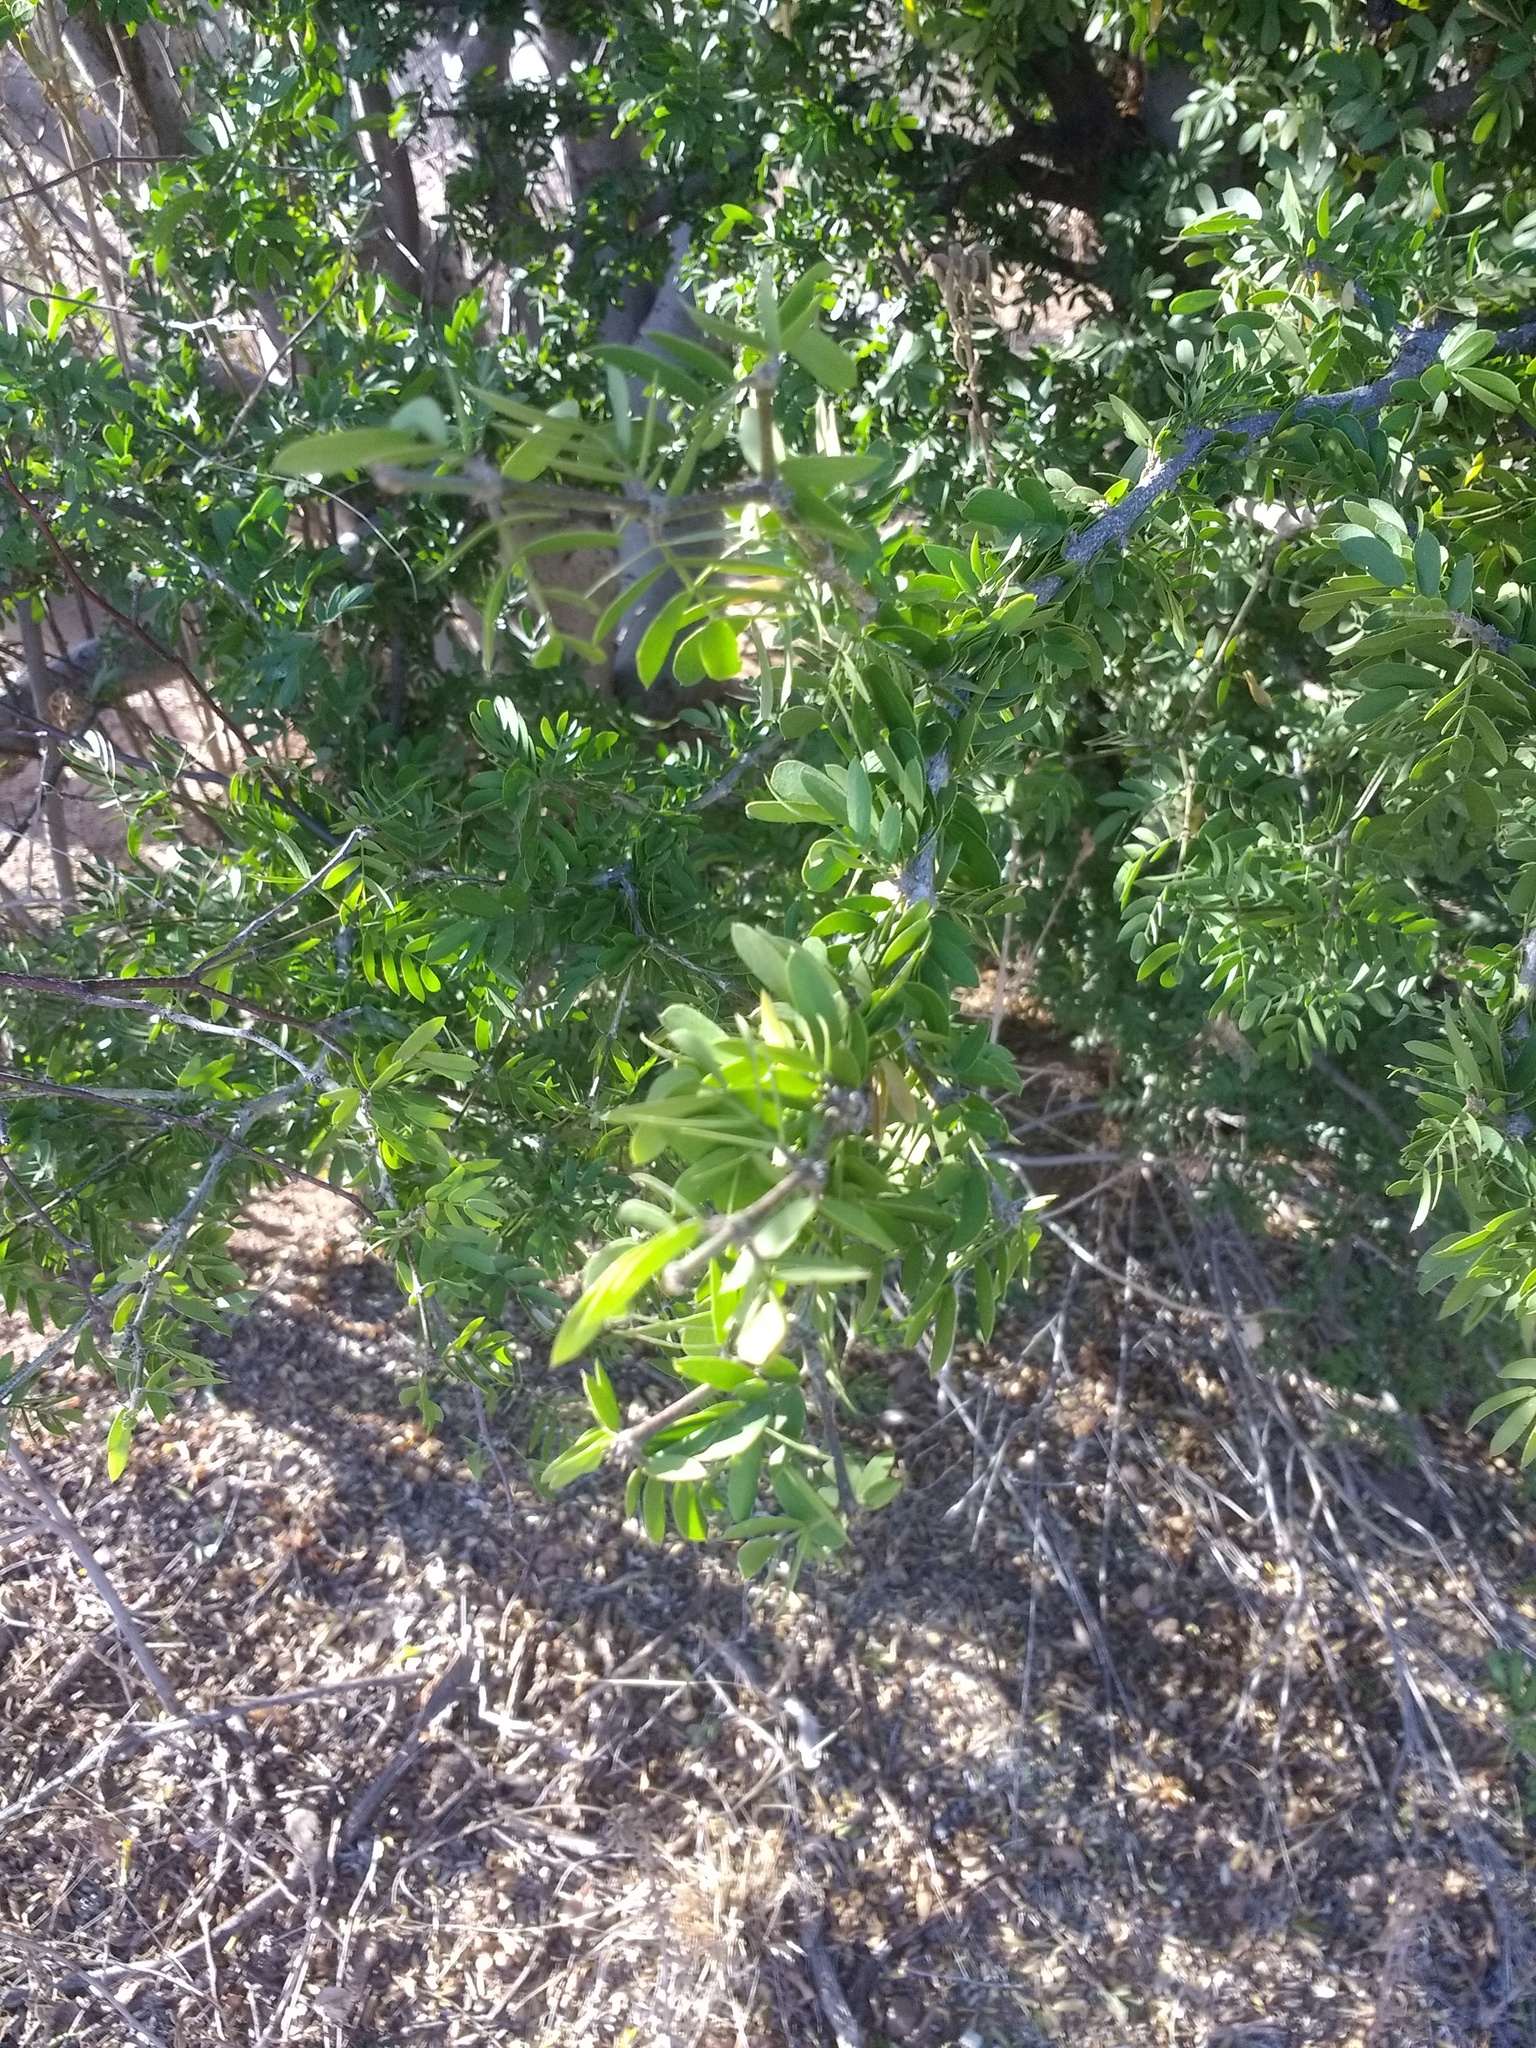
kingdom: Plantae
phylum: Tracheophyta
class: Magnoliopsida
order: Zygophyllales
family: Zygophyllaceae
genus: Guaiacum
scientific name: Guaiacum coulteri
